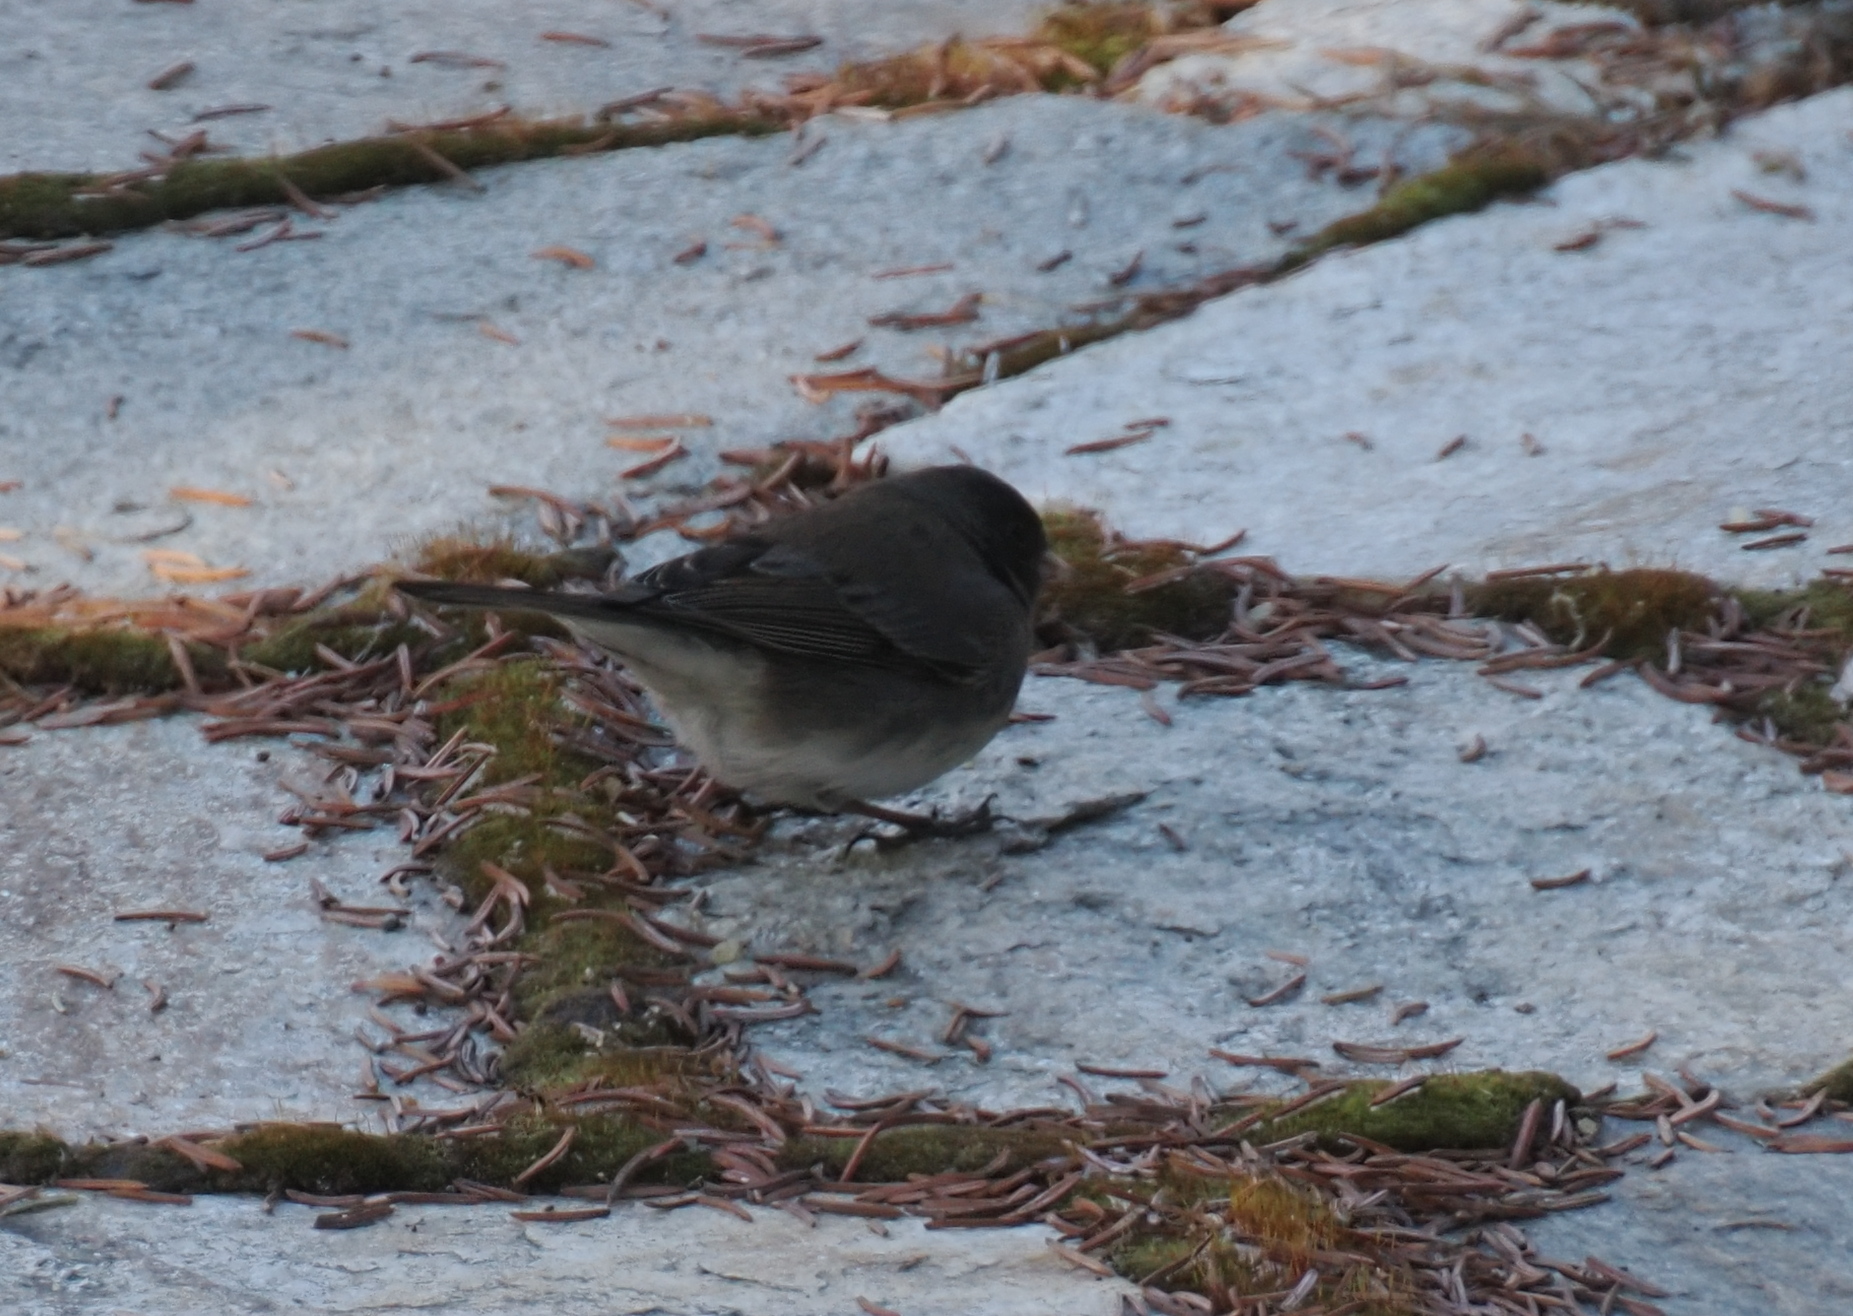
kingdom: Animalia
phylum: Chordata
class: Aves
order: Passeriformes
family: Passerellidae
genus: Junco
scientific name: Junco hyemalis
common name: Dark-eyed junco
